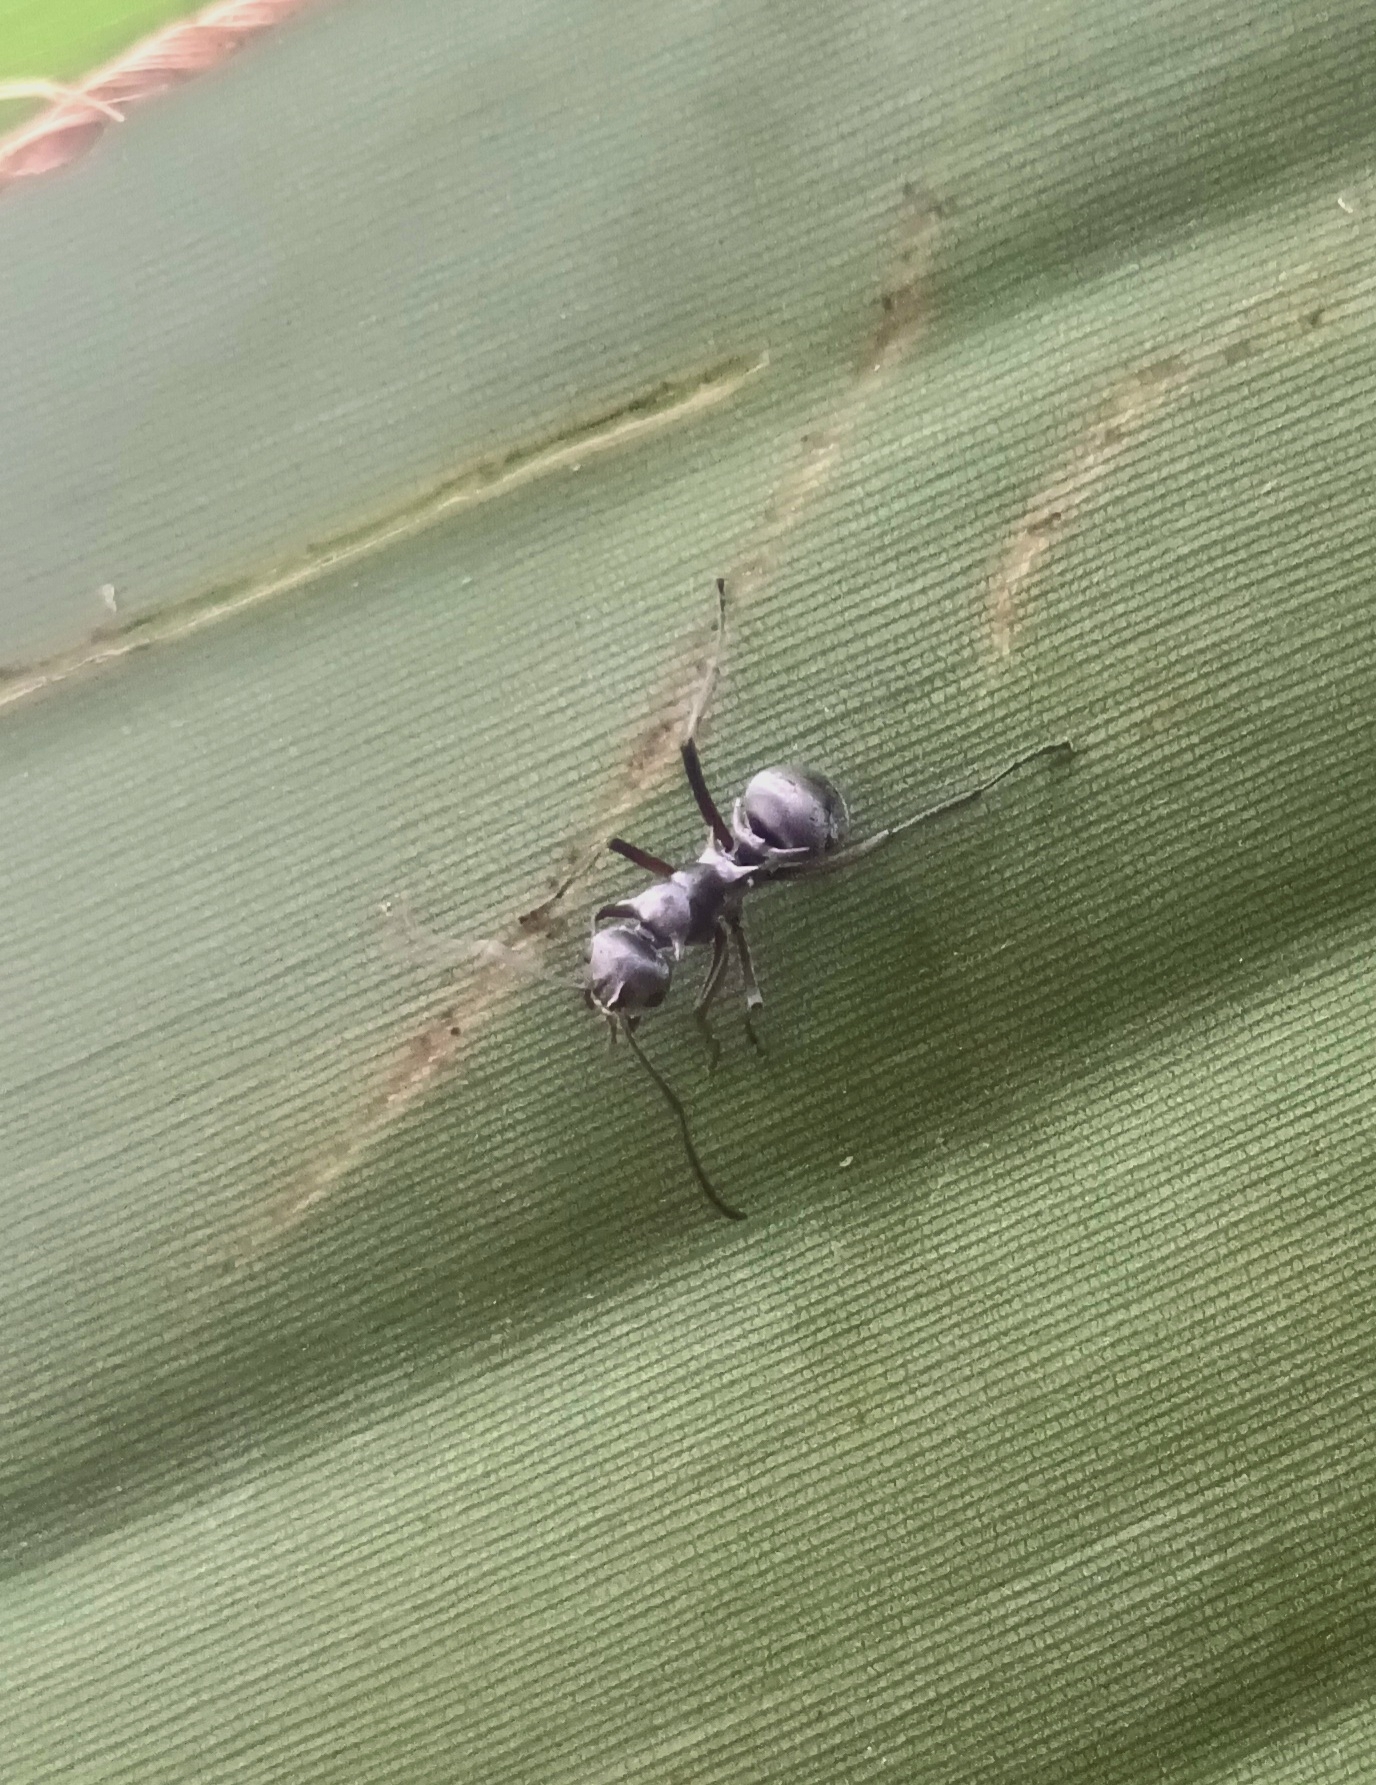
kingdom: Animalia
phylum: Arthropoda
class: Insecta
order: Hymenoptera
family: Formicidae
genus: Polyrhachis
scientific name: Polyrhachis tibialis
